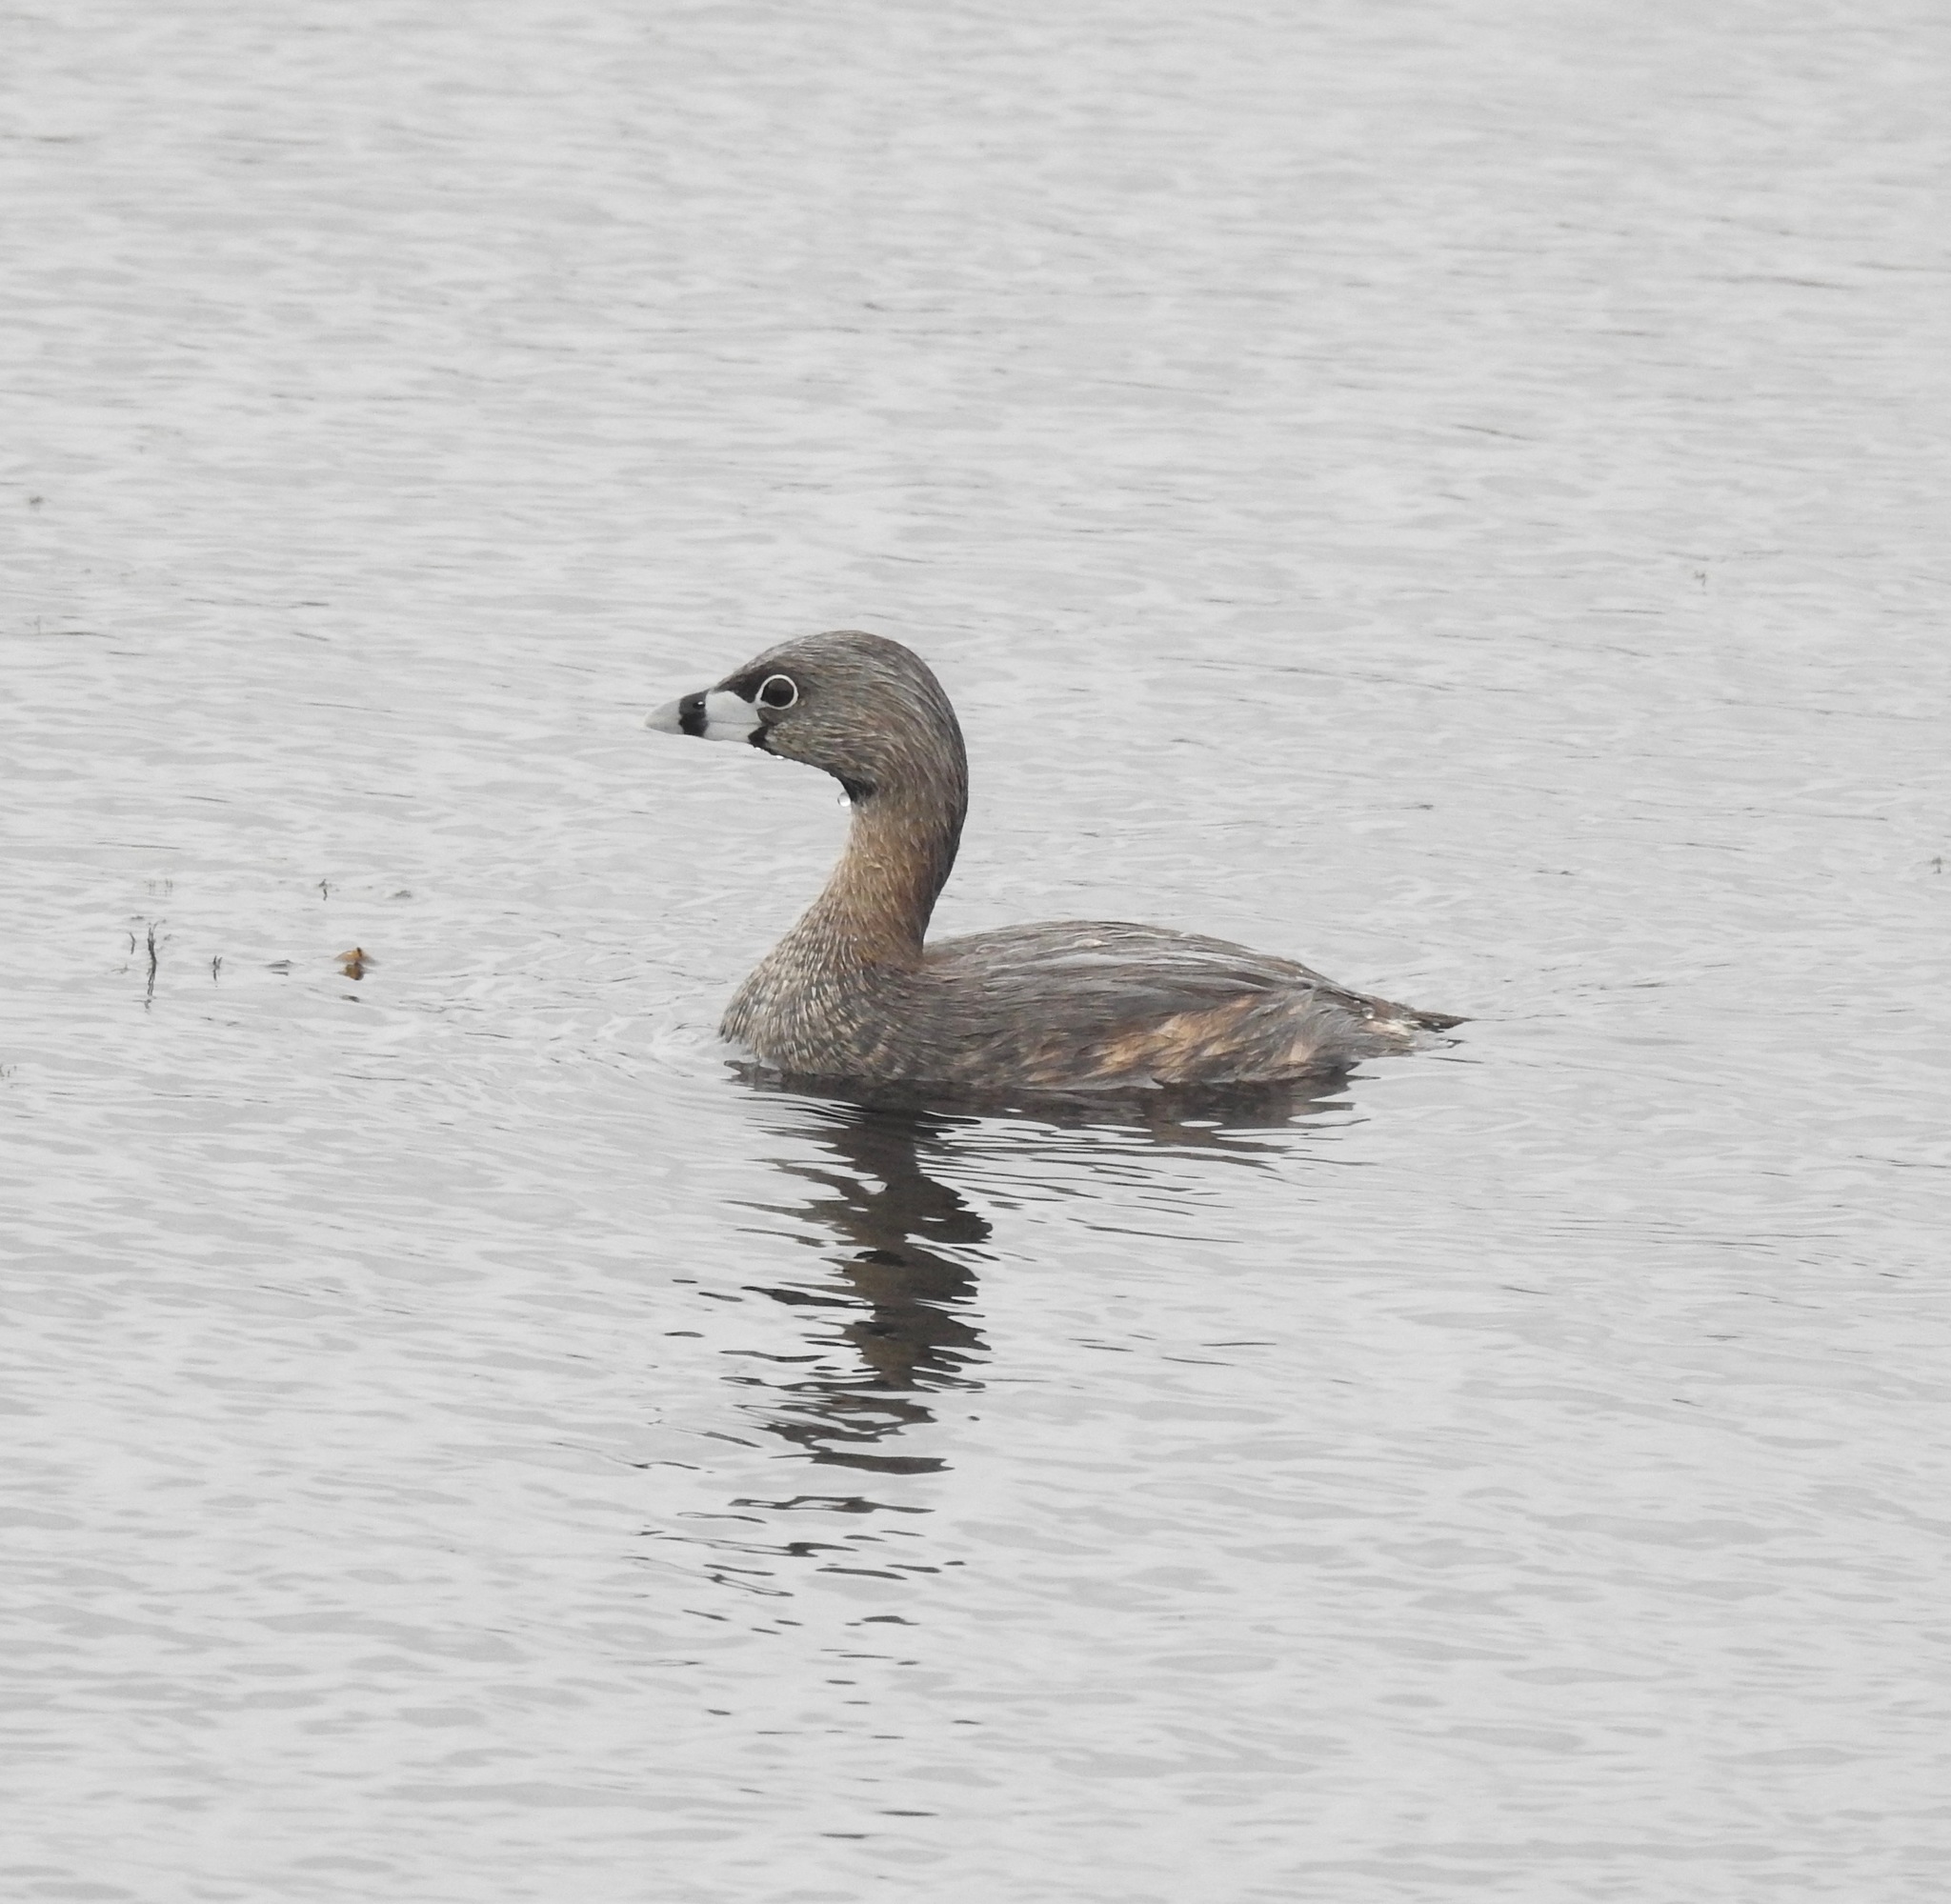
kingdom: Animalia
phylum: Chordata
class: Aves
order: Podicipediformes
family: Podicipedidae
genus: Podilymbus
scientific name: Podilymbus podiceps
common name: Pied-billed grebe
